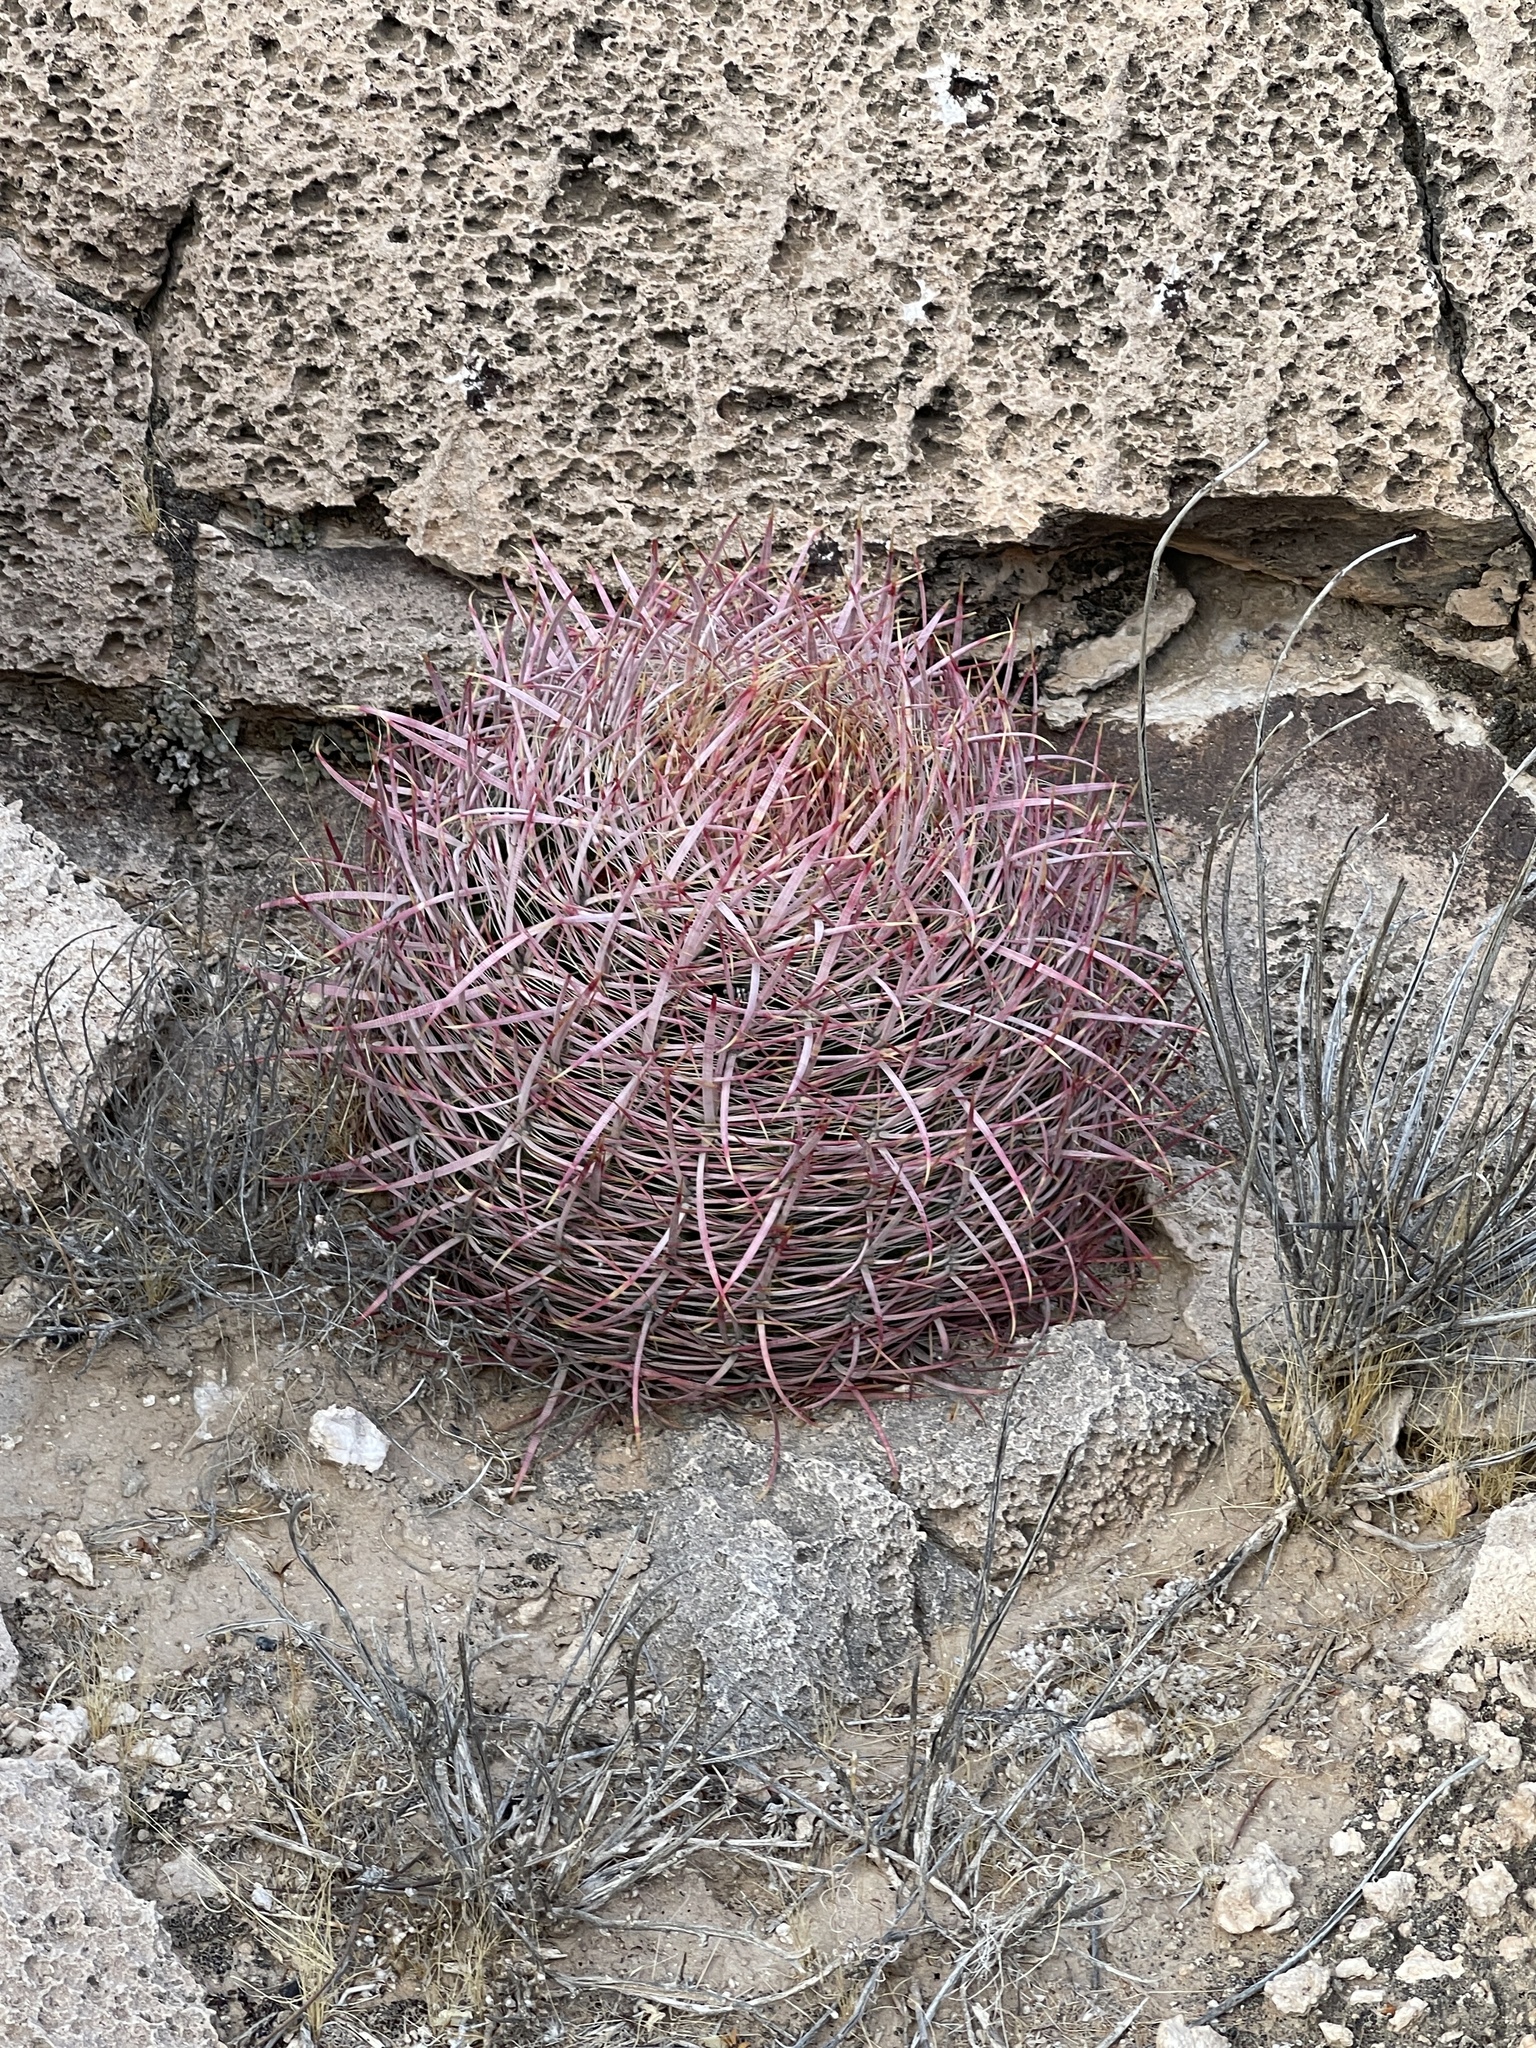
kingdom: Plantae
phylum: Tracheophyta
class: Magnoliopsida
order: Caryophyllales
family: Cactaceae
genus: Ferocactus
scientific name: Ferocactus cylindraceus
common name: California barrel cactus
